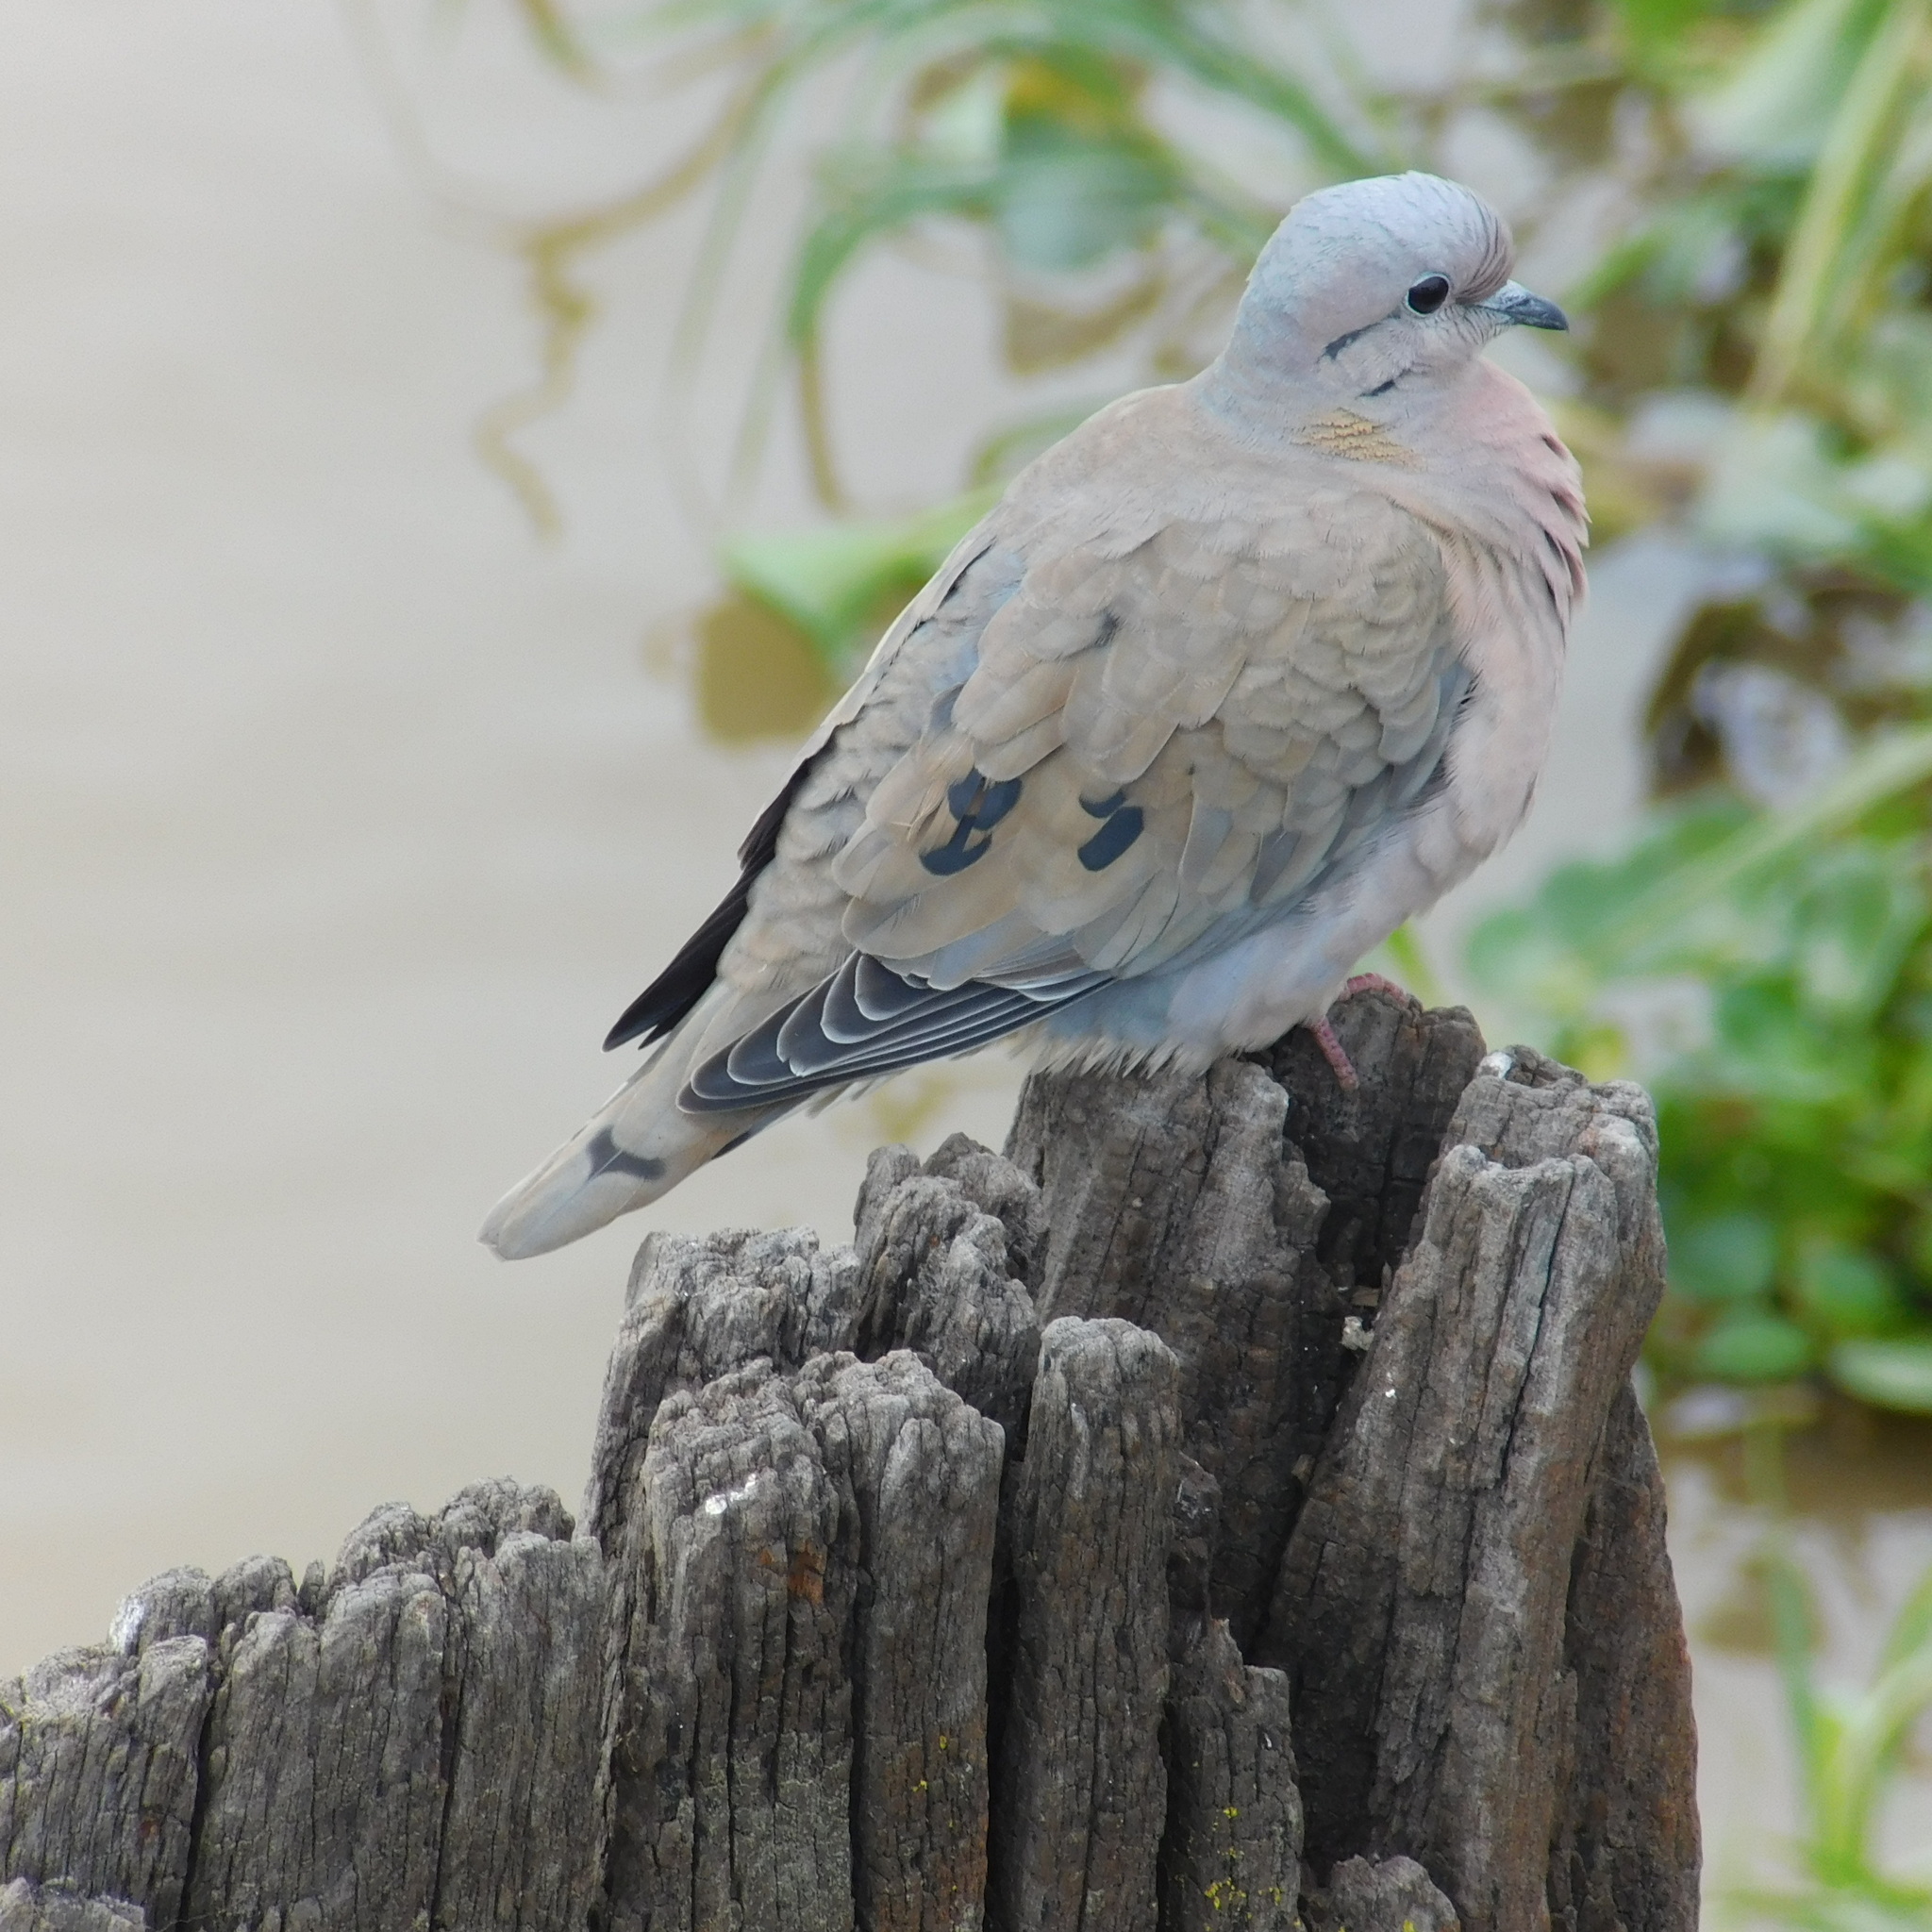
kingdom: Animalia
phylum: Chordata
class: Aves
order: Columbiformes
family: Columbidae
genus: Zenaida
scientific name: Zenaida auriculata
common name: Eared dove
